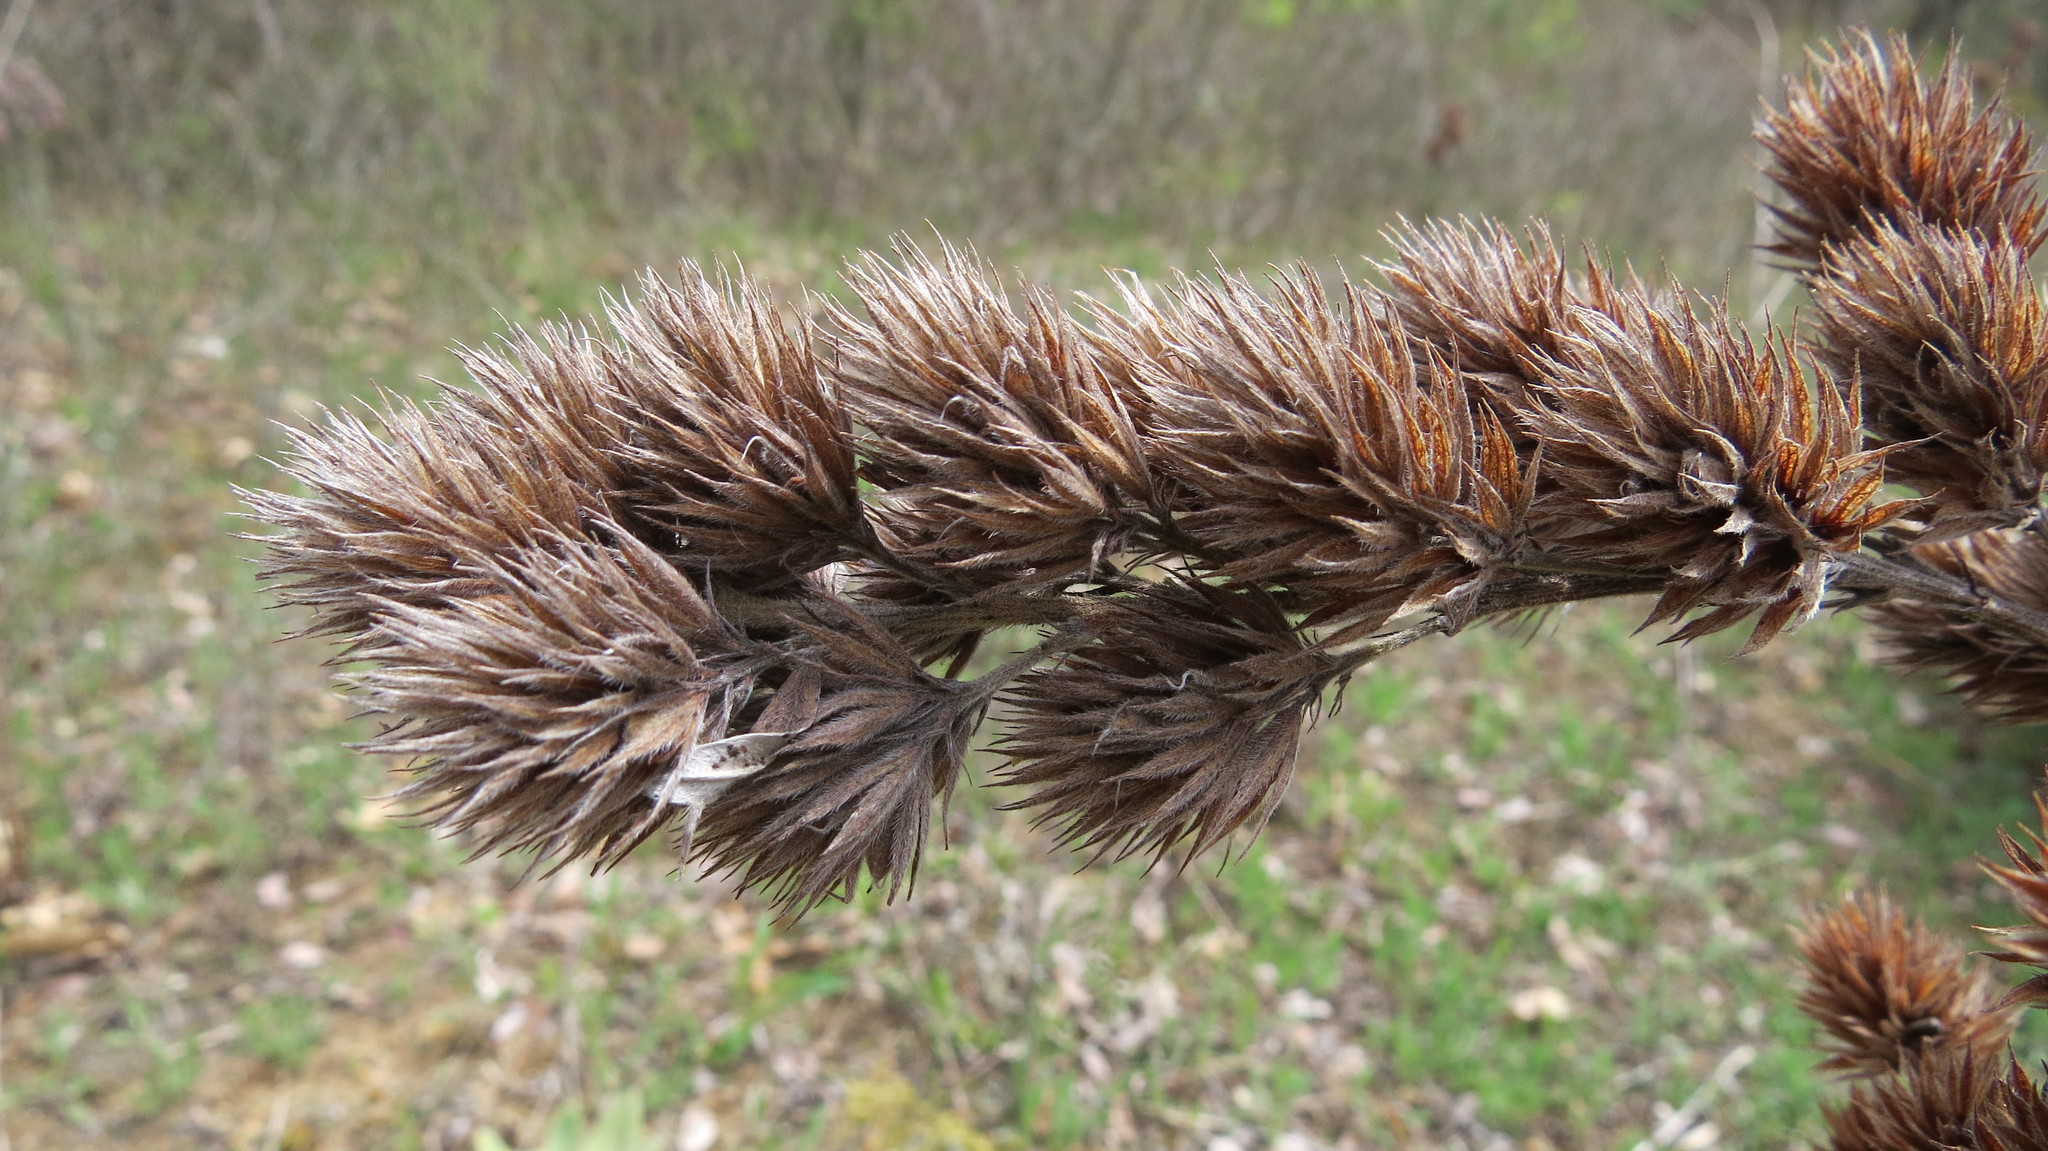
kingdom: Plantae
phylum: Tracheophyta
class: Magnoliopsida
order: Fabales
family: Fabaceae
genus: Lespedeza
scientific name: Lespedeza capitata
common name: Dusty clover
